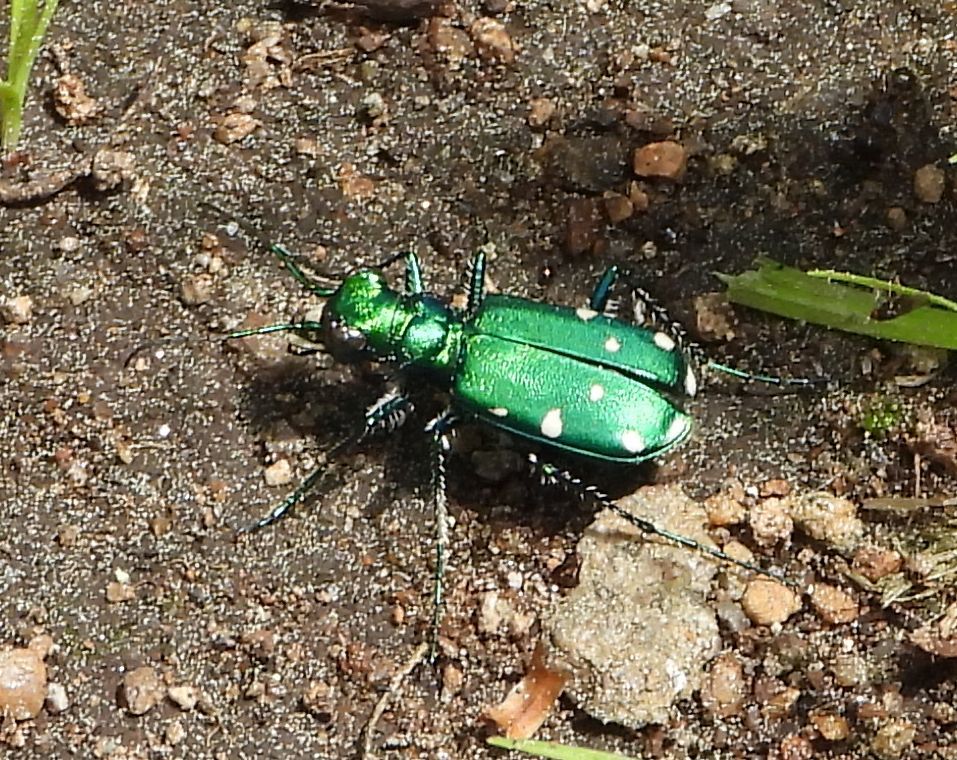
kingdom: Animalia
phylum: Arthropoda
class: Insecta
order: Coleoptera
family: Carabidae
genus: Cicindela
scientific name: Cicindela sexguttata
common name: Six-spotted tiger beetle
